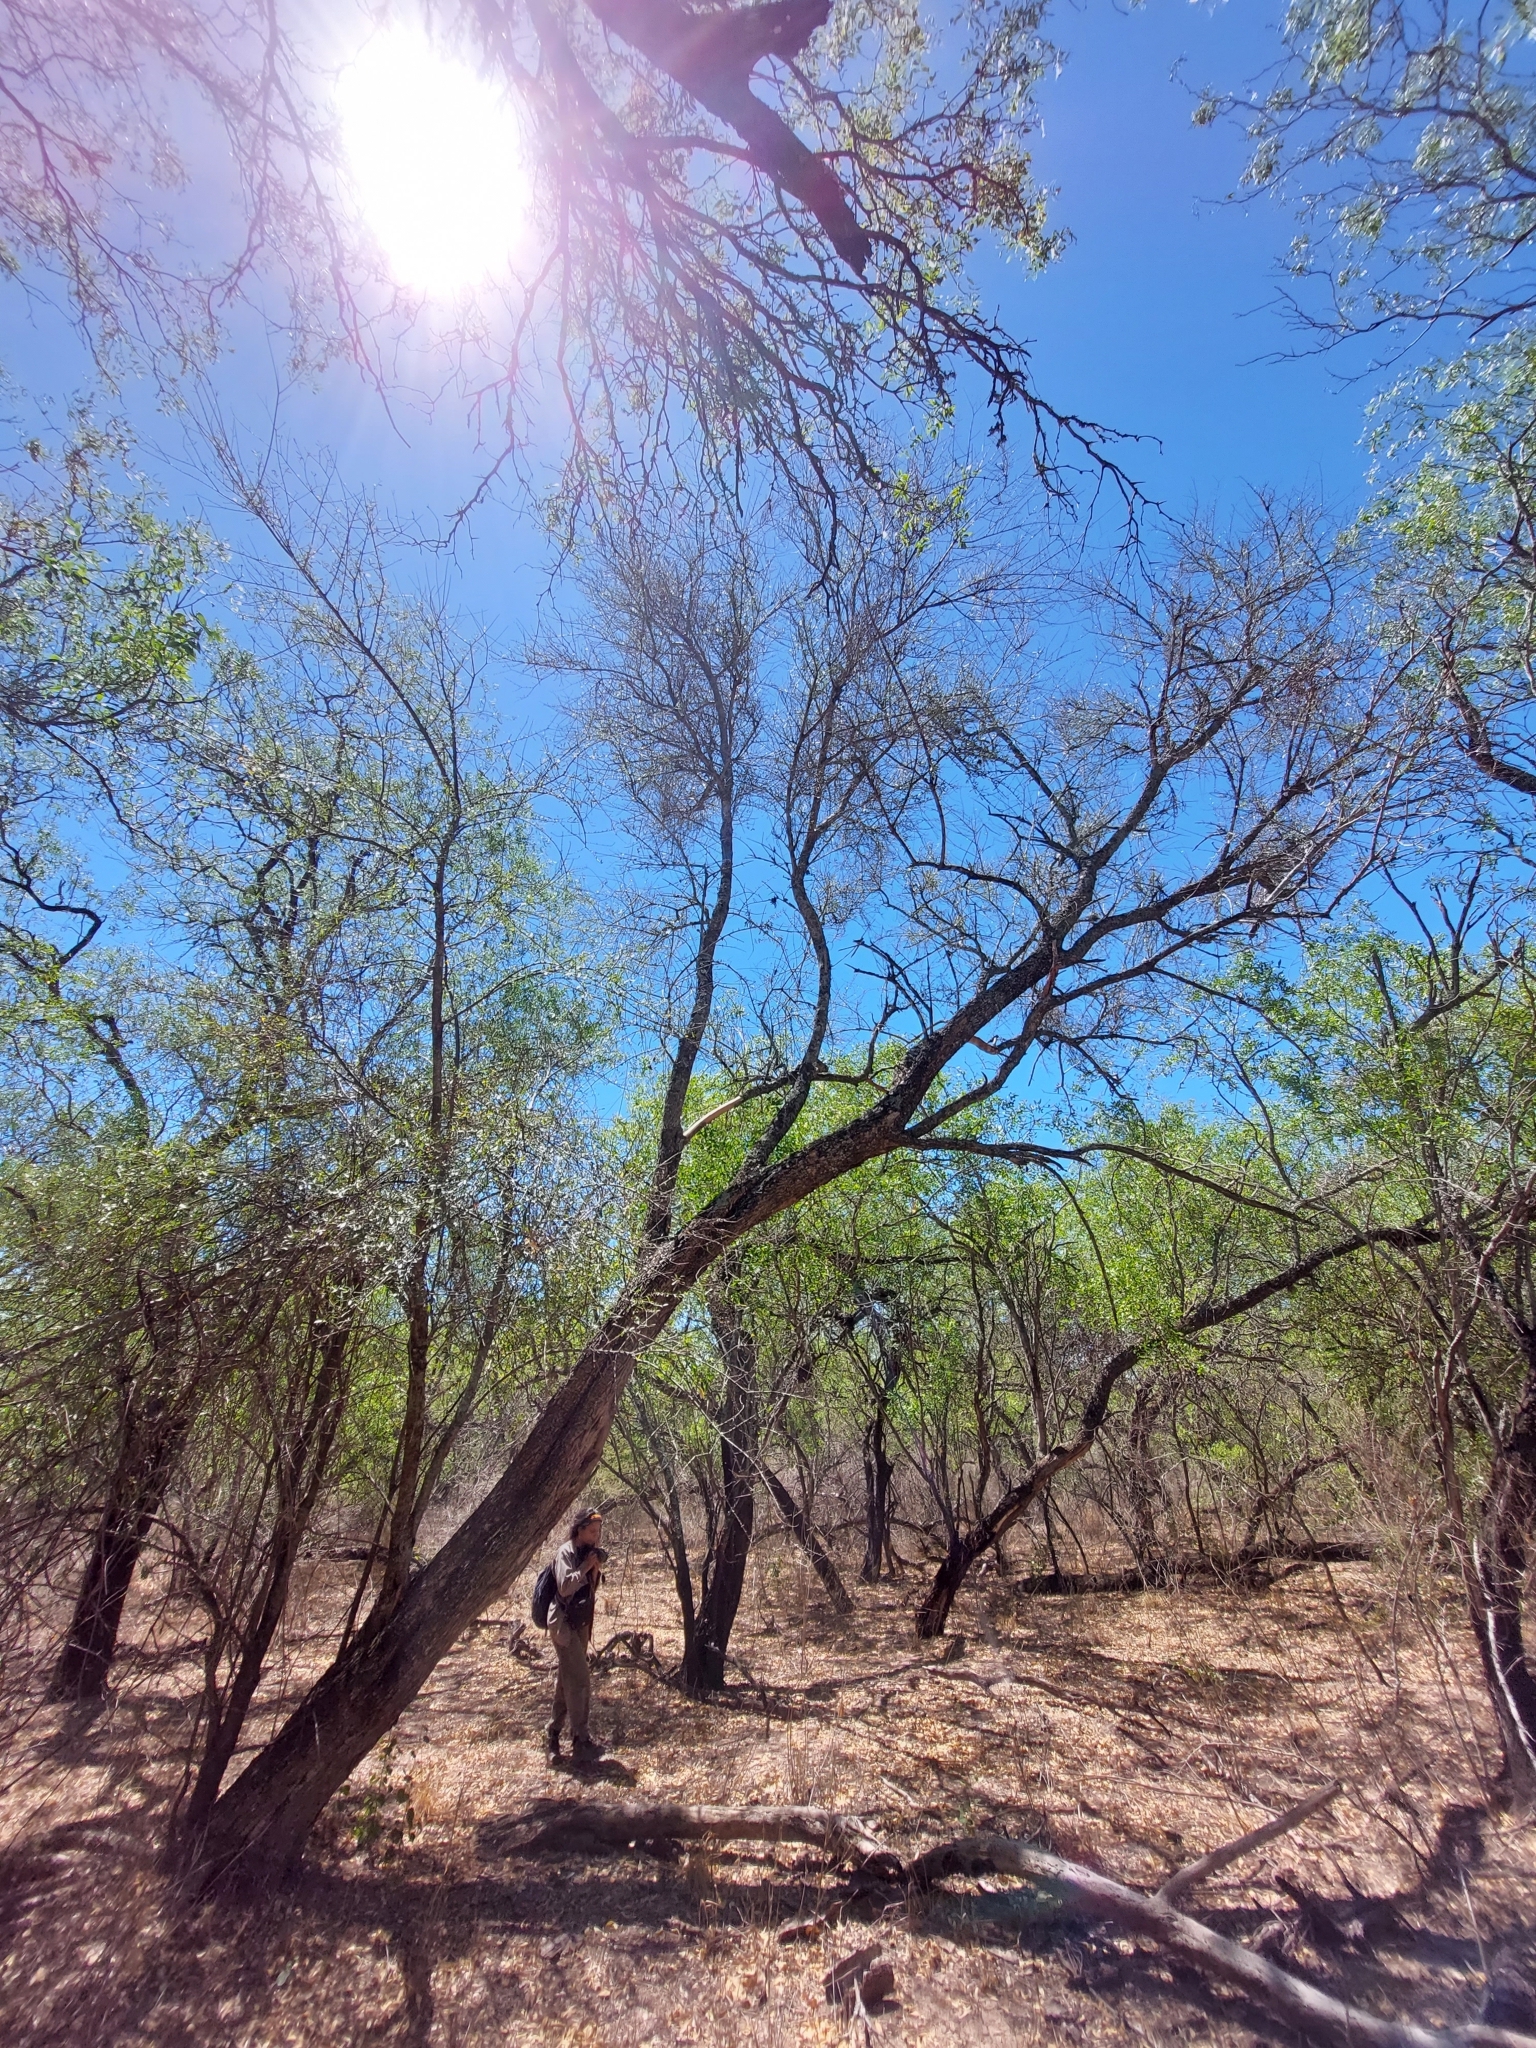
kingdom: Plantae
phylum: Tracheophyta
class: Magnoliopsida
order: Lamiales
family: Bignoniaceae
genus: Tabebuia
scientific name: Tabebuia nodosa
